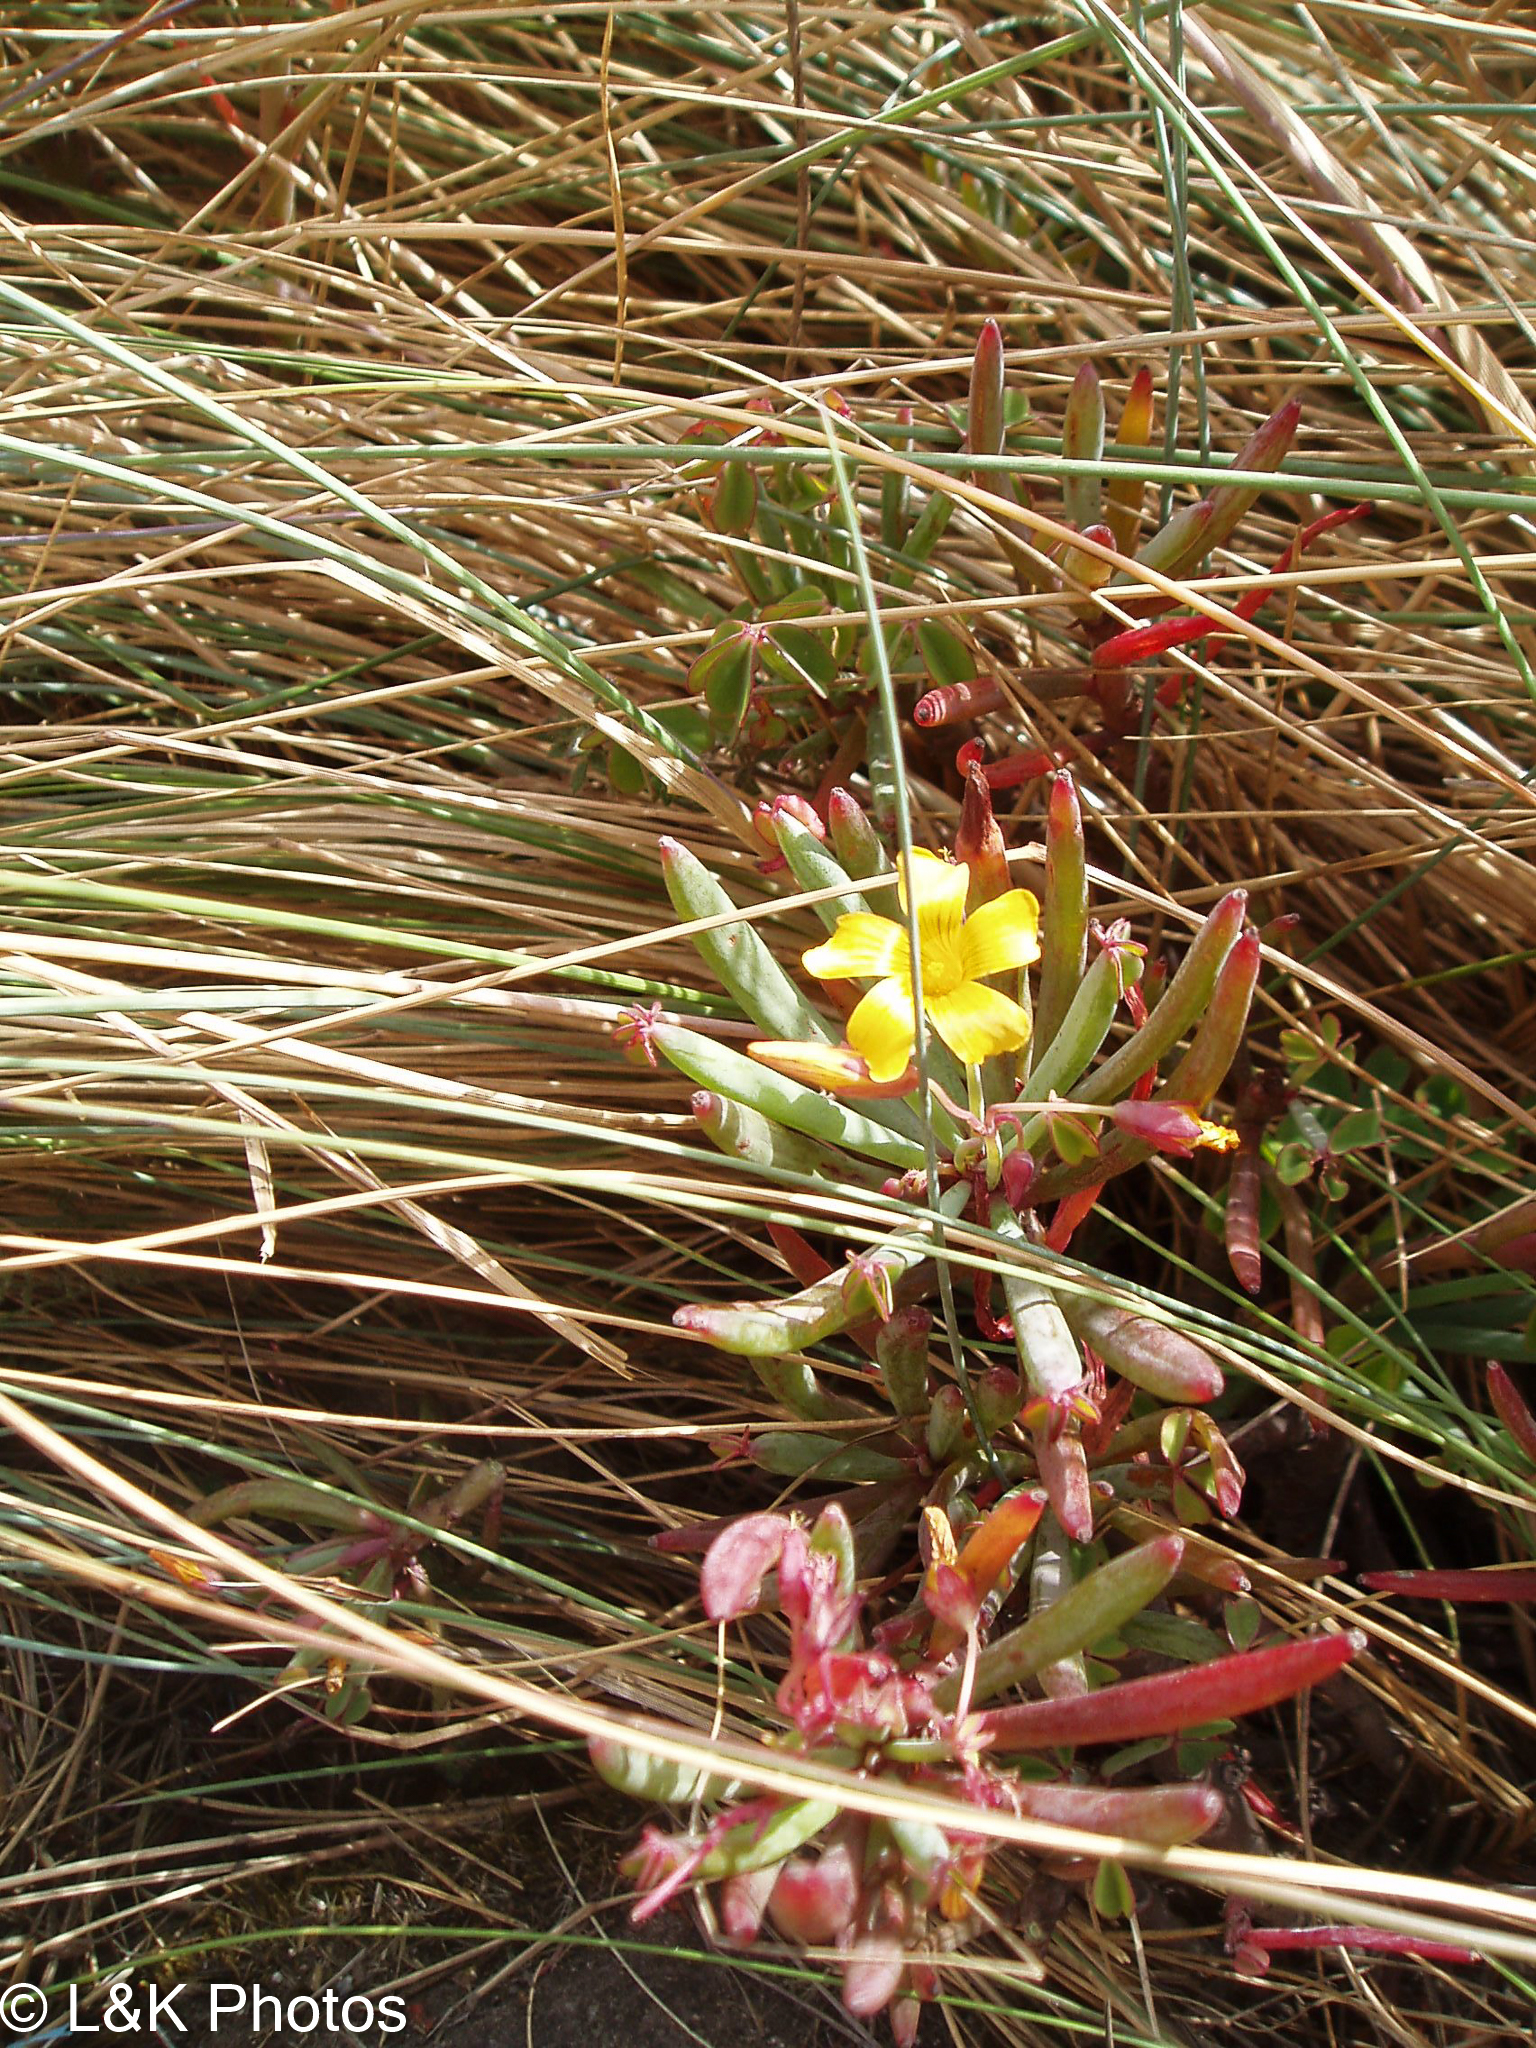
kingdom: Plantae
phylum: Tracheophyta
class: Magnoliopsida
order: Oxalidales
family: Oxalidaceae
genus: Oxalis
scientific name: Oxalis san-miguelii
